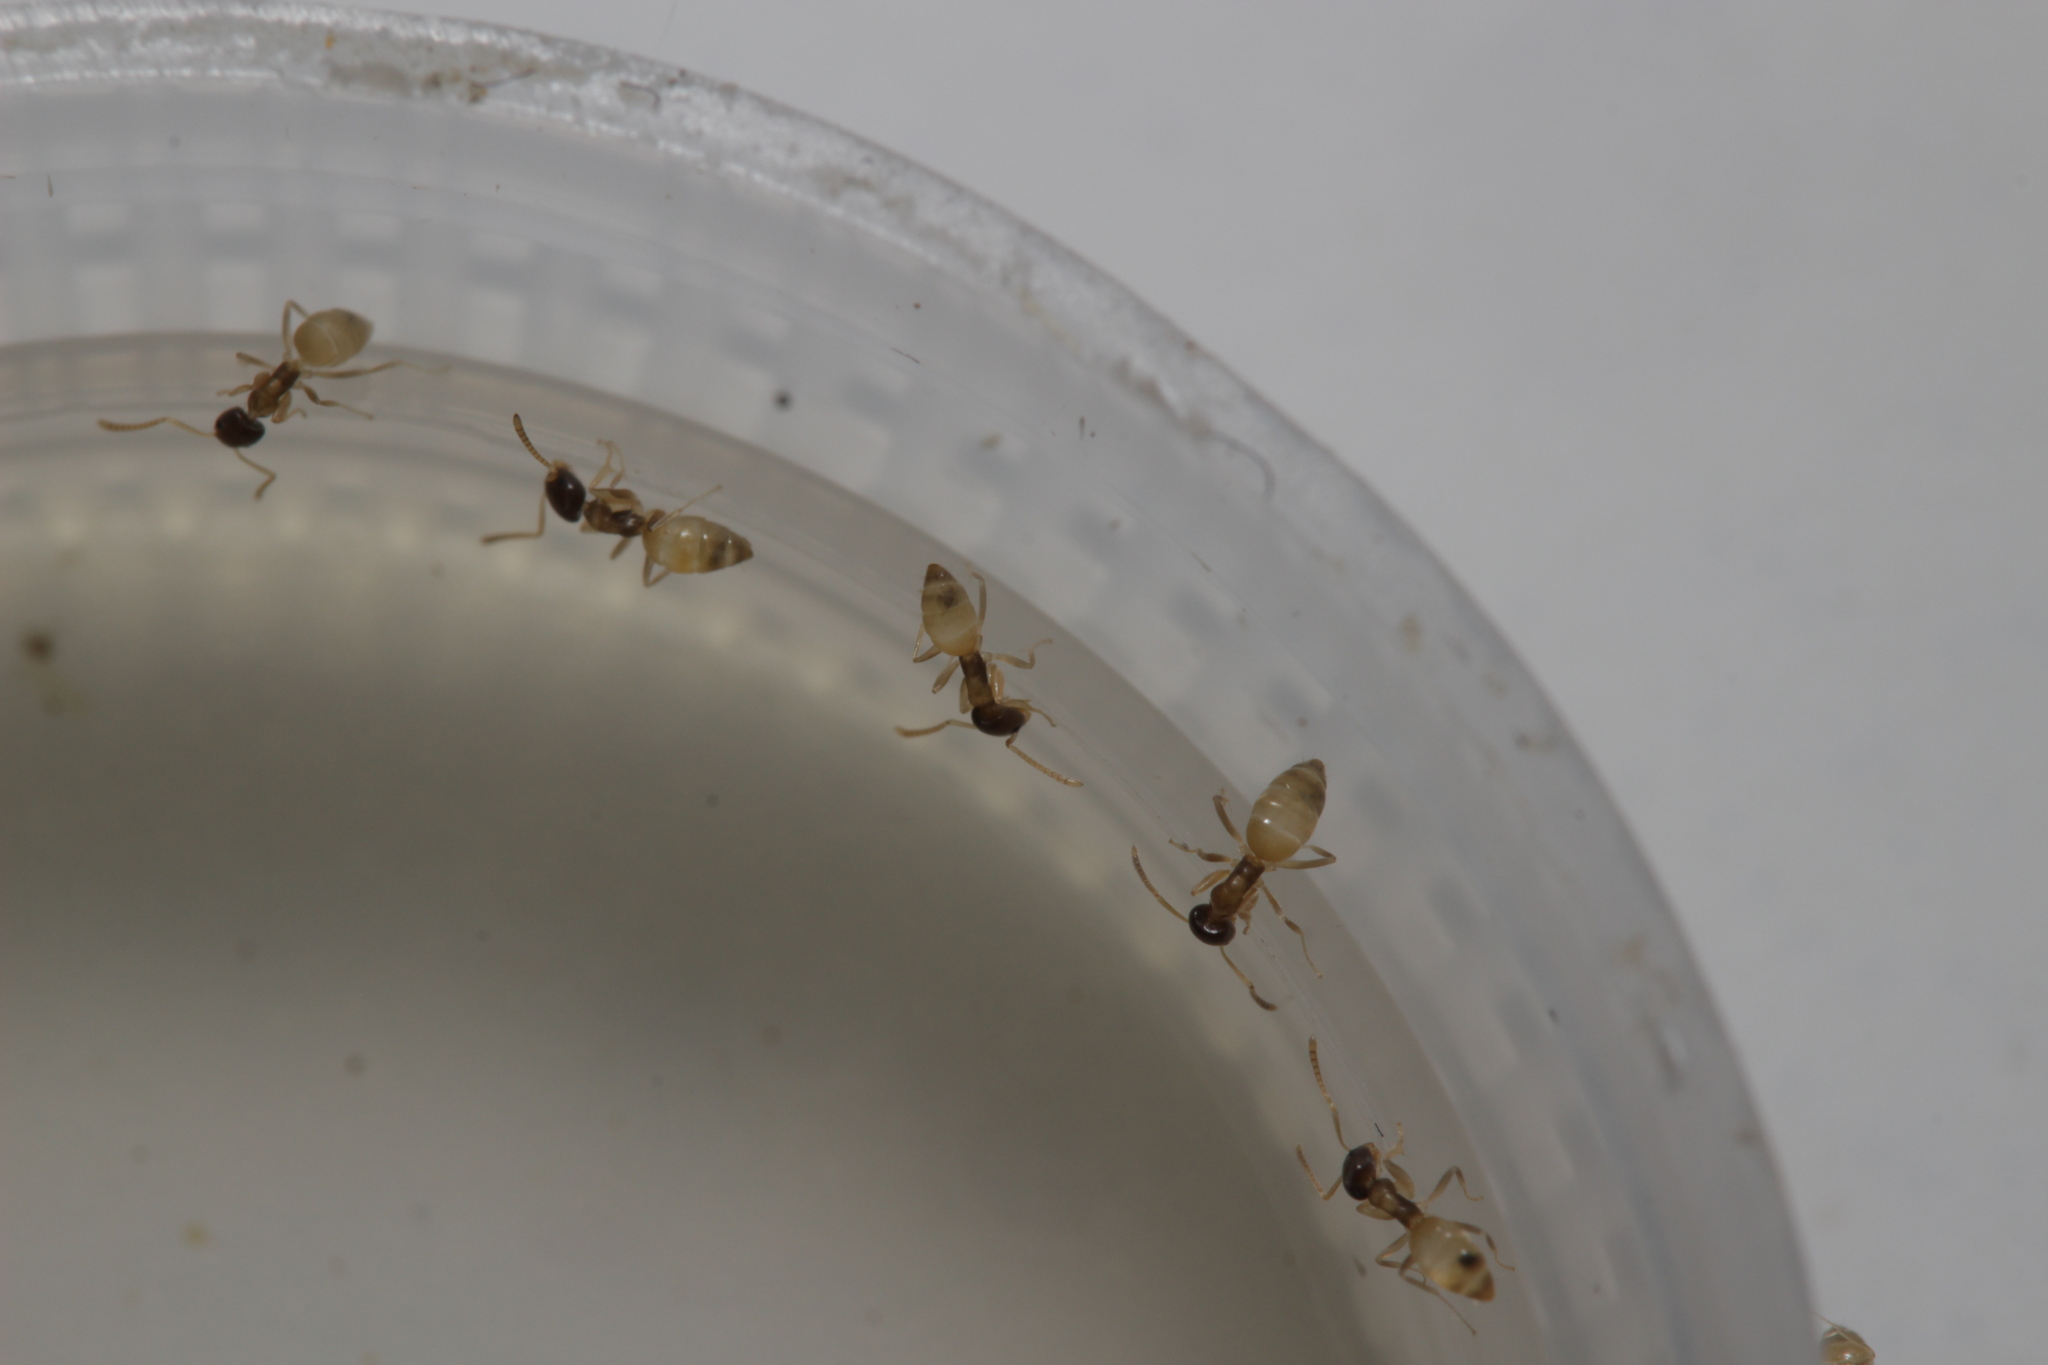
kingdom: Animalia
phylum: Arthropoda
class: Insecta
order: Hymenoptera
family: Formicidae
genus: Tapinoma
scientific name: Tapinoma melanocephalum
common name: Ghost ant
